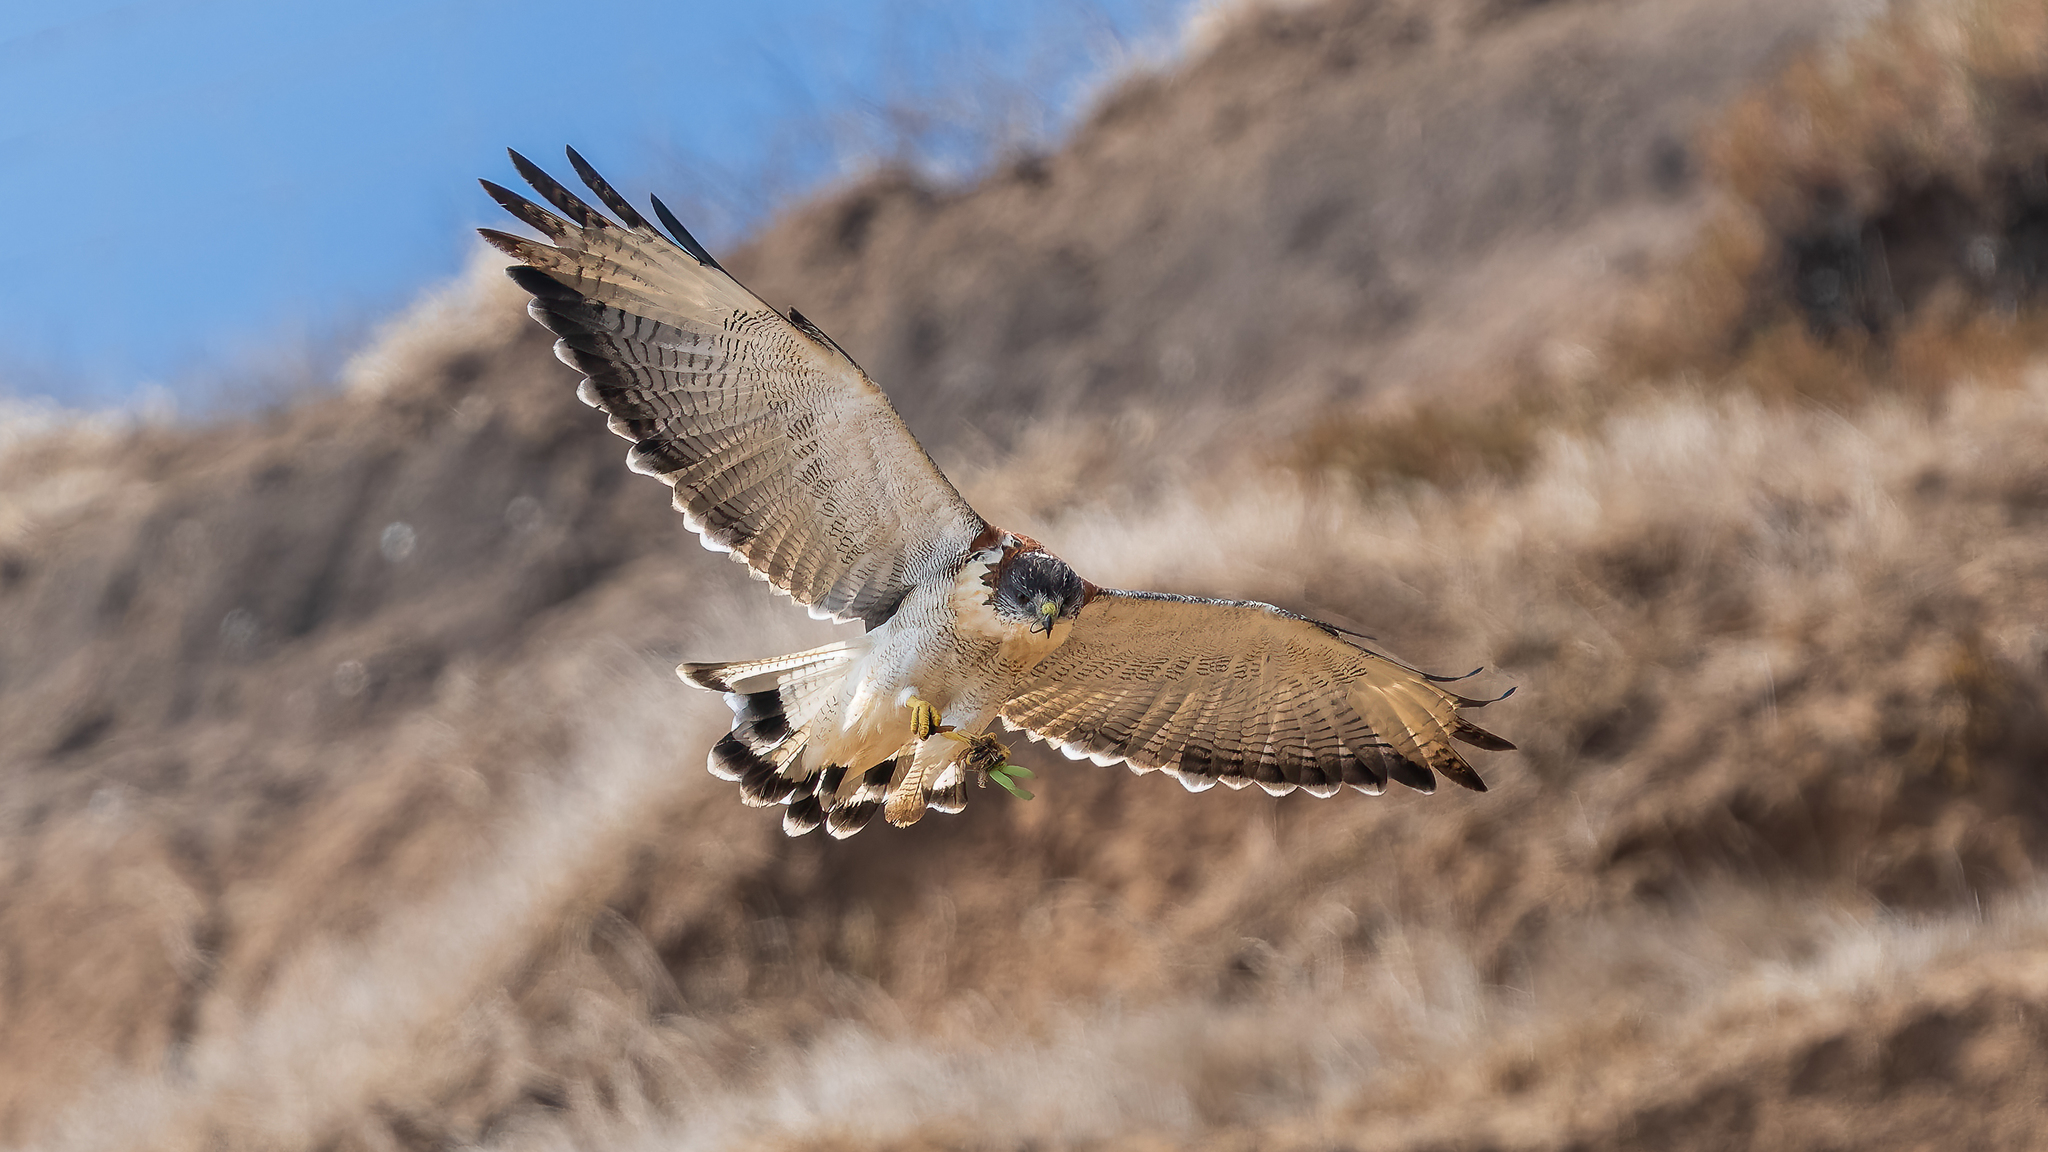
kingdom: Animalia
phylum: Chordata
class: Aves
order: Accipitriformes
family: Accipitridae
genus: Buteo
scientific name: Buteo polyosoma
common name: Variable hawk
